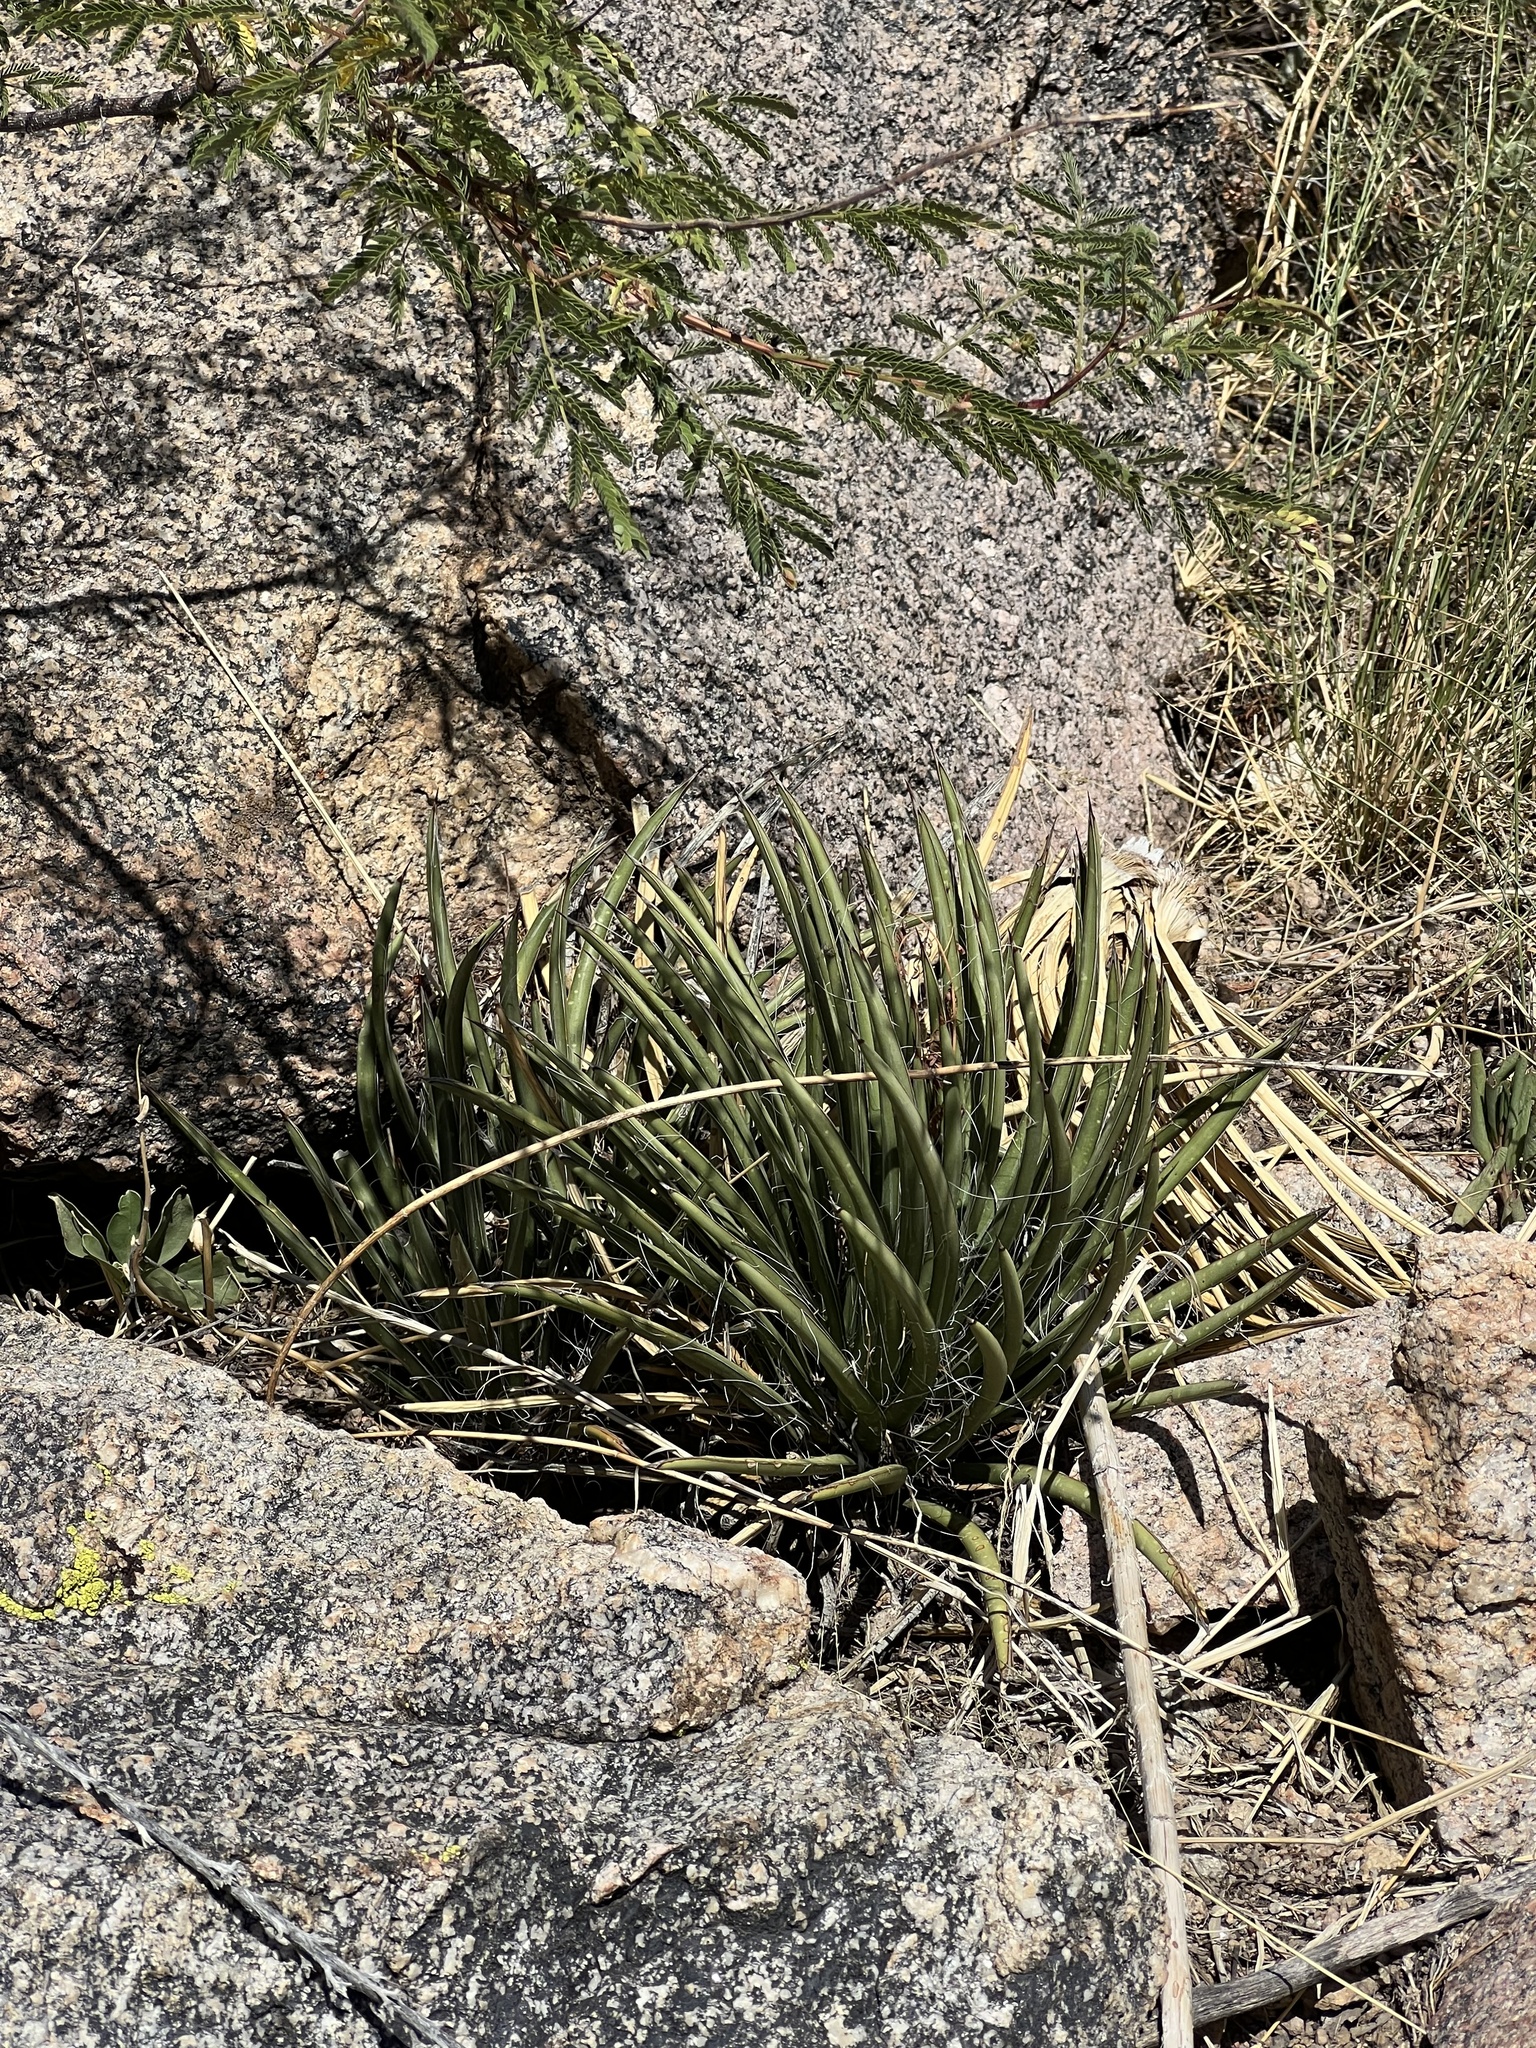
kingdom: Plantae
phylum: Tracheophyta
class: Liliopsida
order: Asparagales
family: Asparagaceae
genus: Agave
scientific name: Agave schottii
